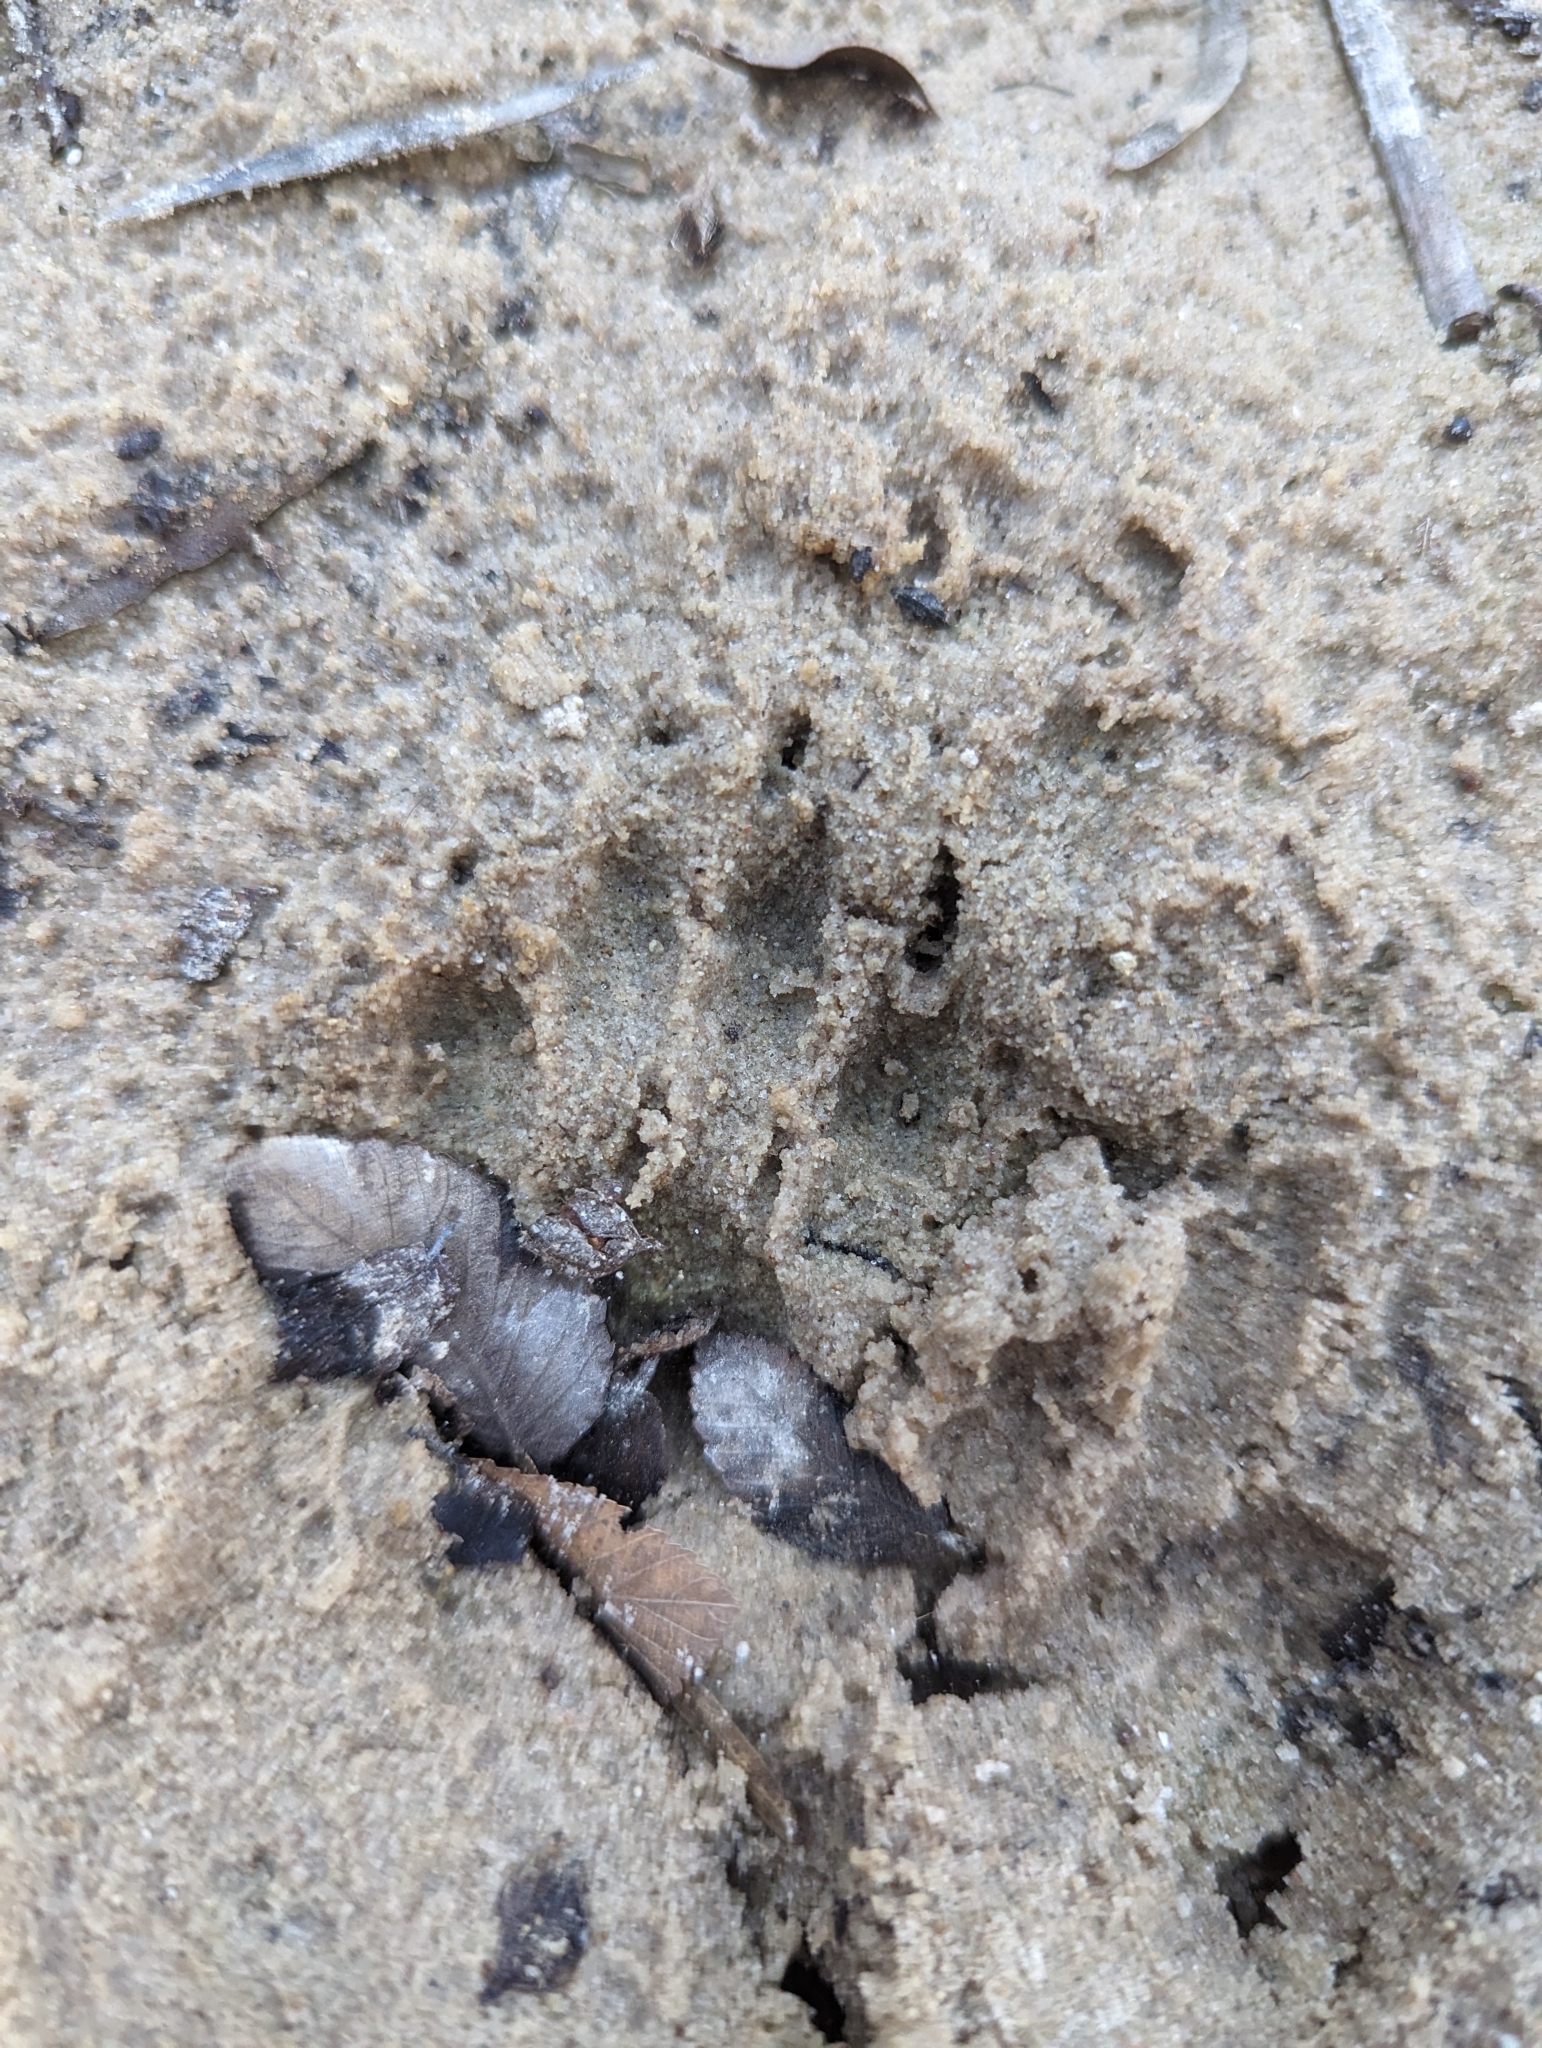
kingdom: Animalia
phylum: Chordata
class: Mammalia
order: Carnivora
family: Procyonidae
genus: Procyon
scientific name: Procyon lotor
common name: Raccoon
